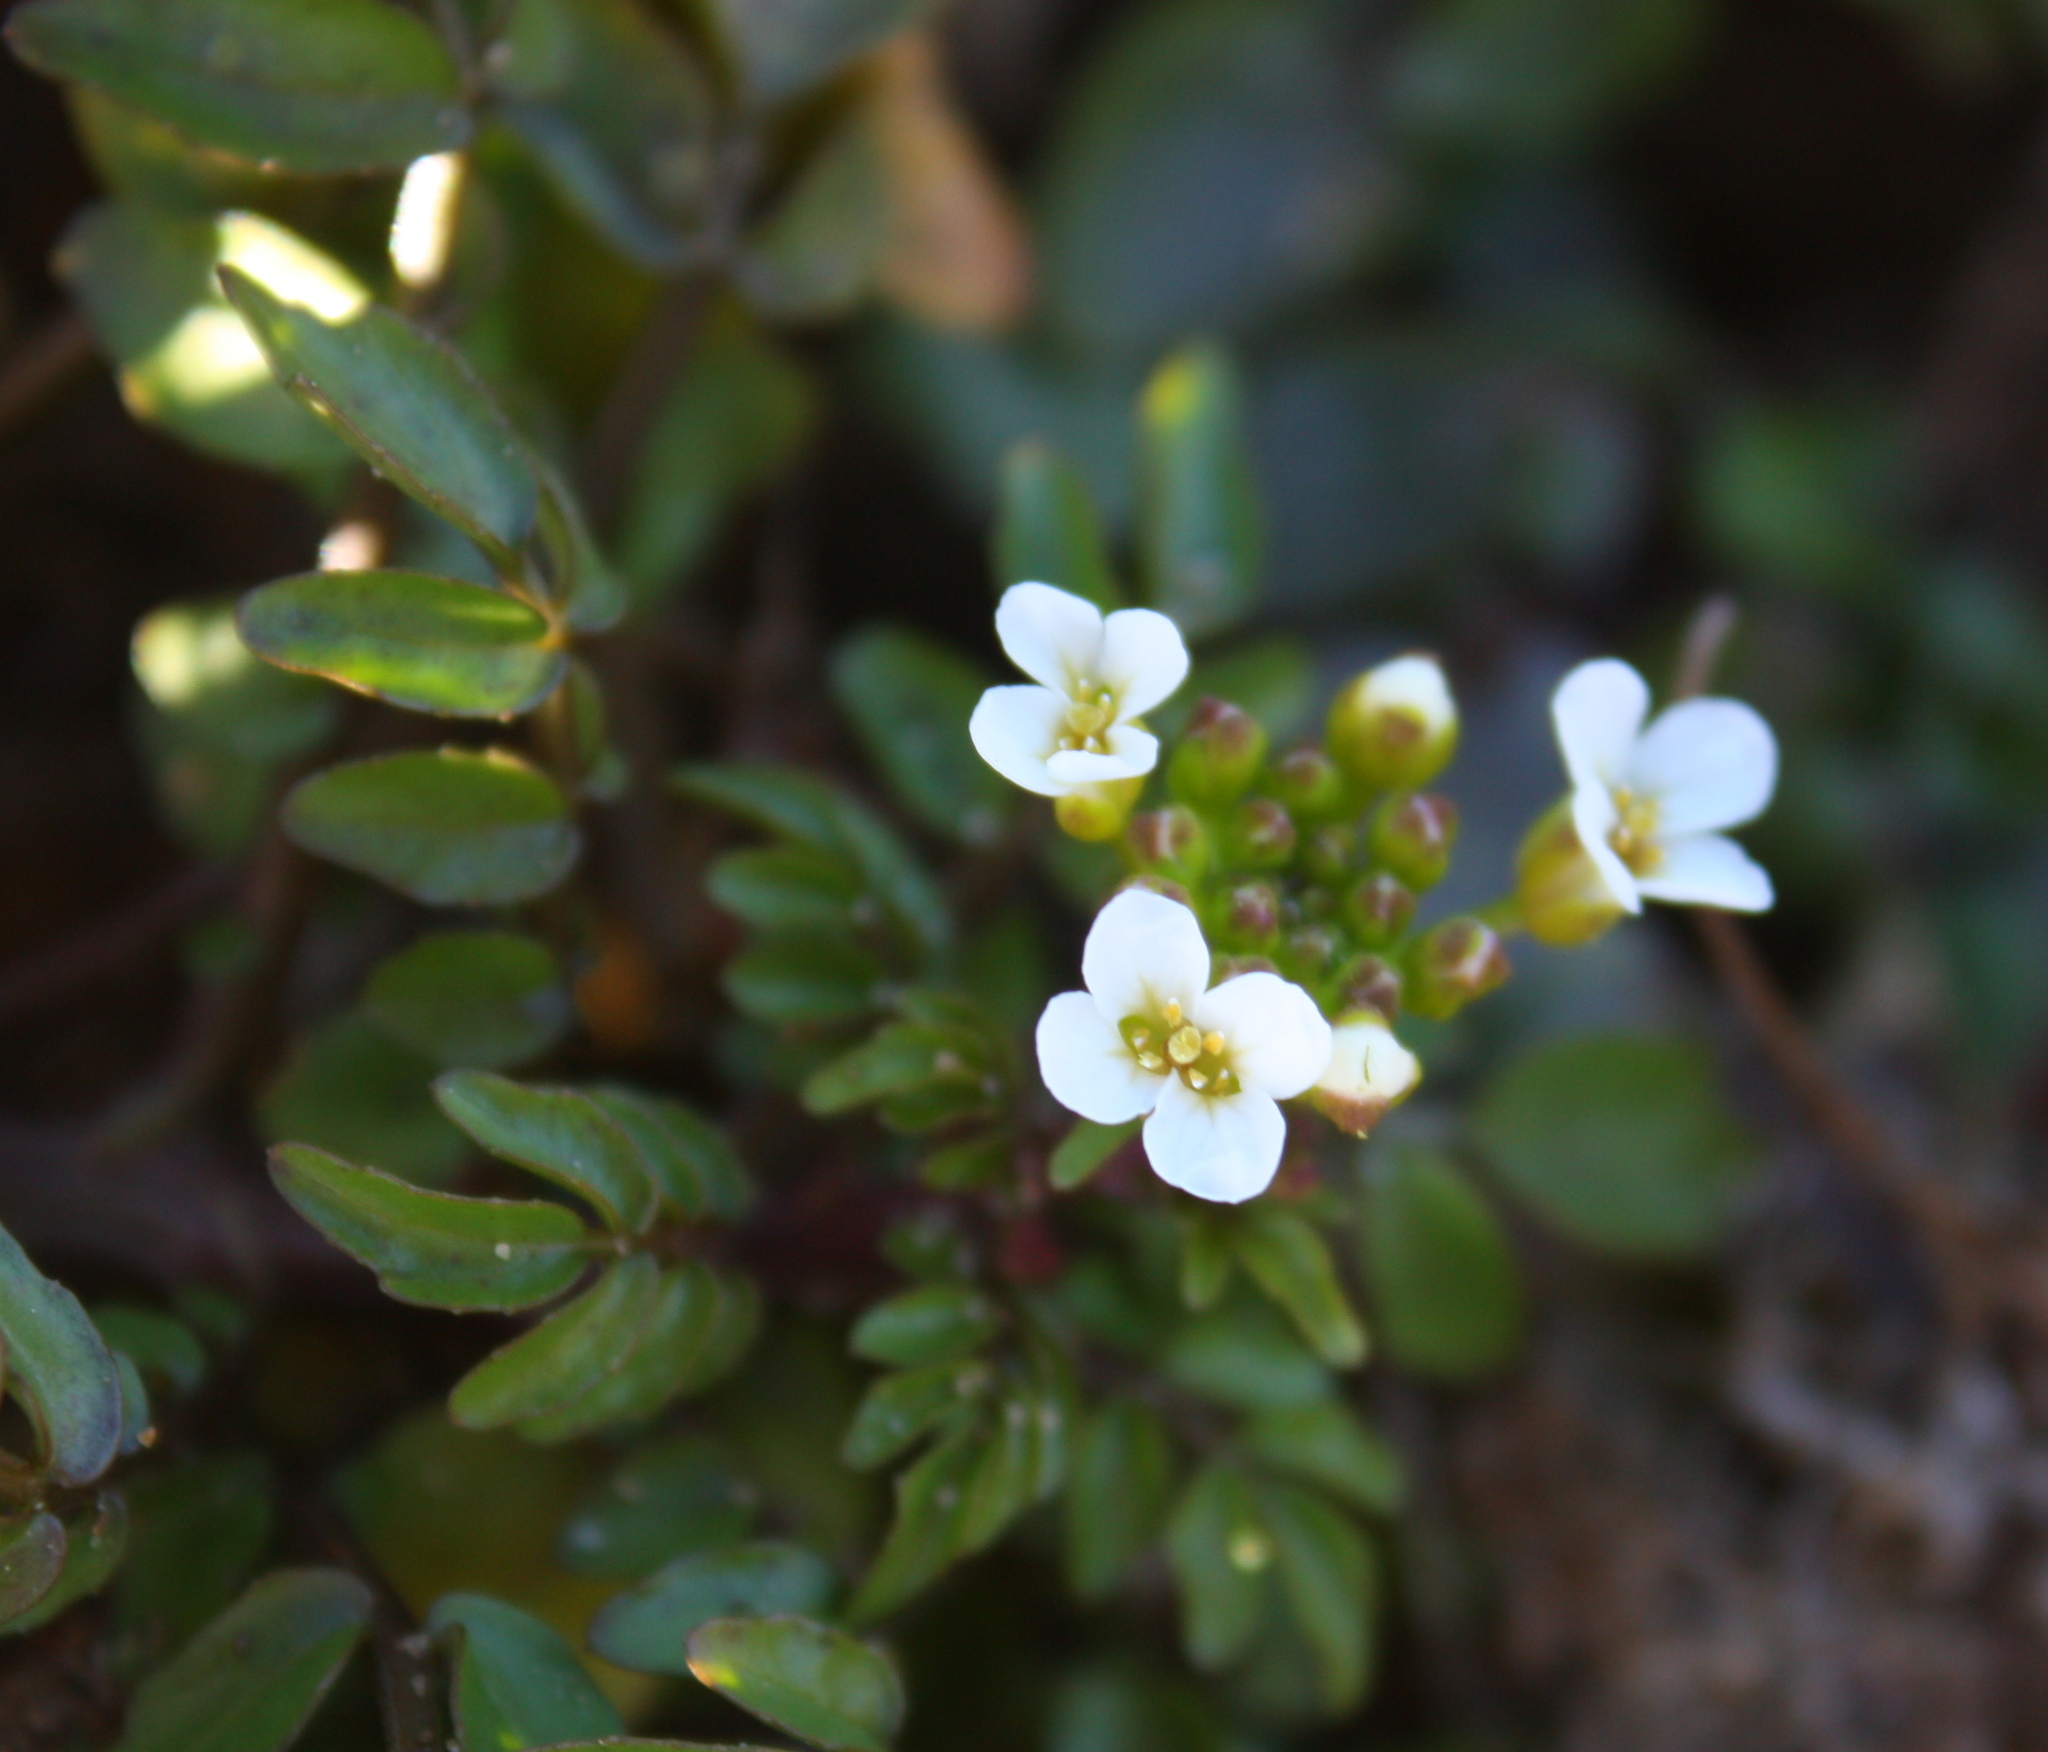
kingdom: Plantae
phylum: Tracheophyta
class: Magnoliopsida
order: Brassicales
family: Brassicaceae
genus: Nasturtium
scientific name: Nasturtium officinale
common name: Watercress
